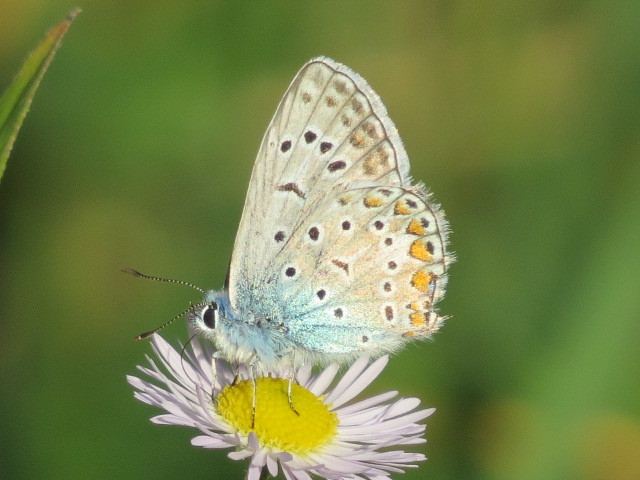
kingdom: Animalia
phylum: Arthropoda
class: Insecta
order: Lepidoptera
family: Lycaenidae
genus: Polyommatus
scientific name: Polyommatus icarus
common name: Common blue
